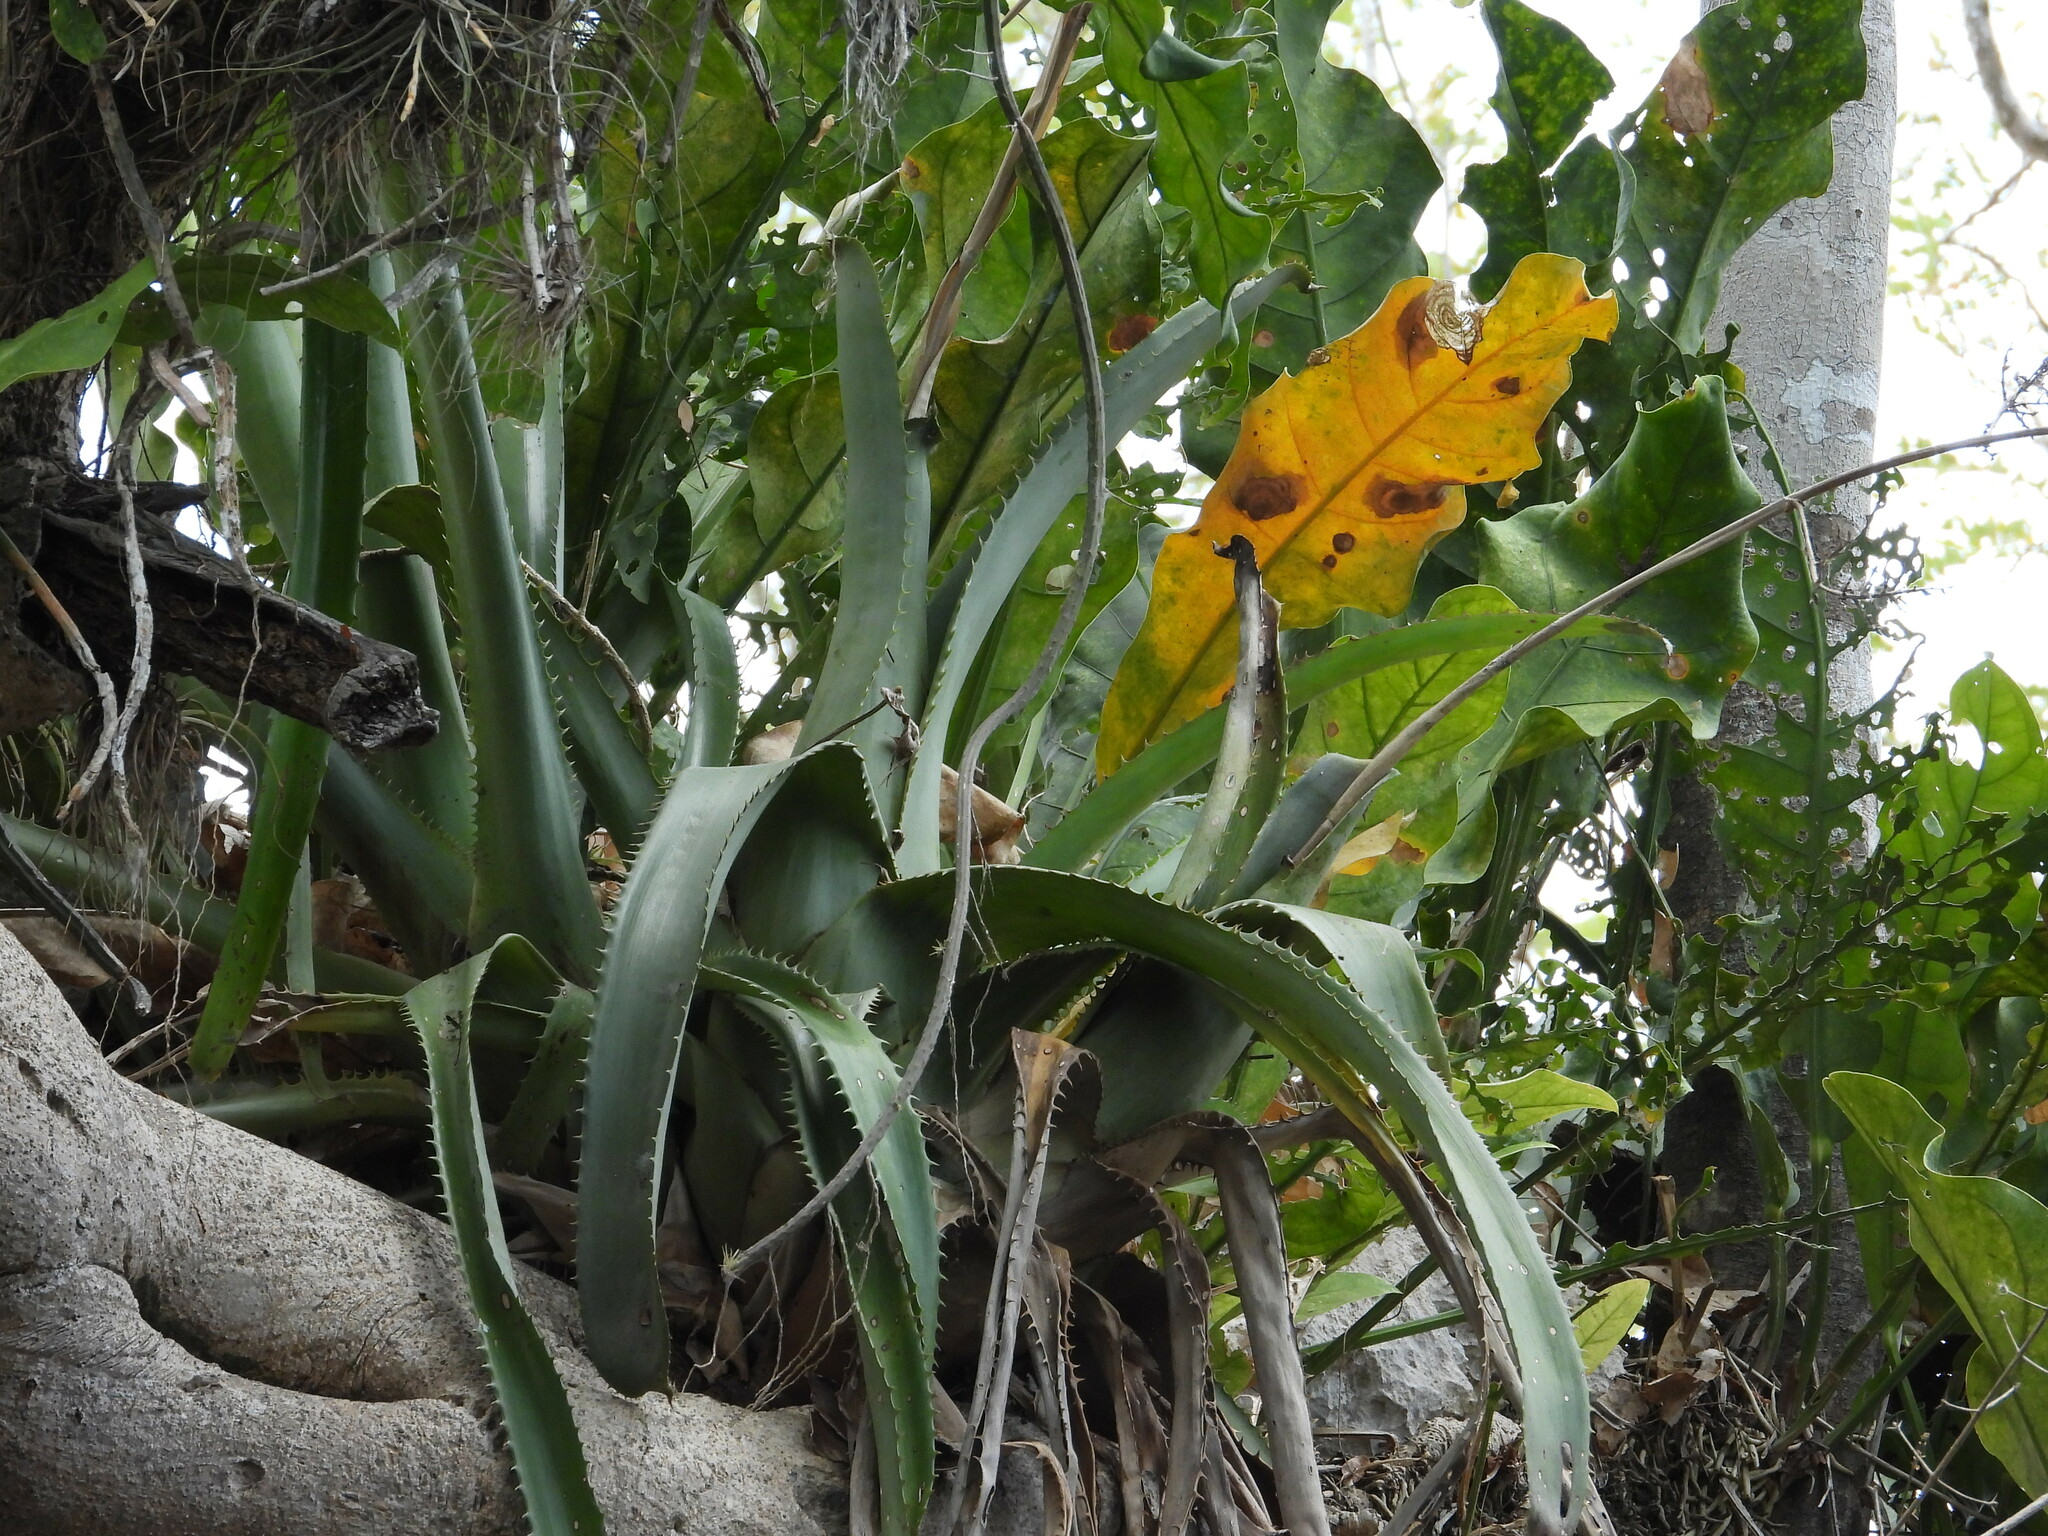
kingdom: Plantae
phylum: Tracheophyta
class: Liliopsida
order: Poales
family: Bromeliaceae
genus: Aechmea
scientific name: Aechmea bracteata
